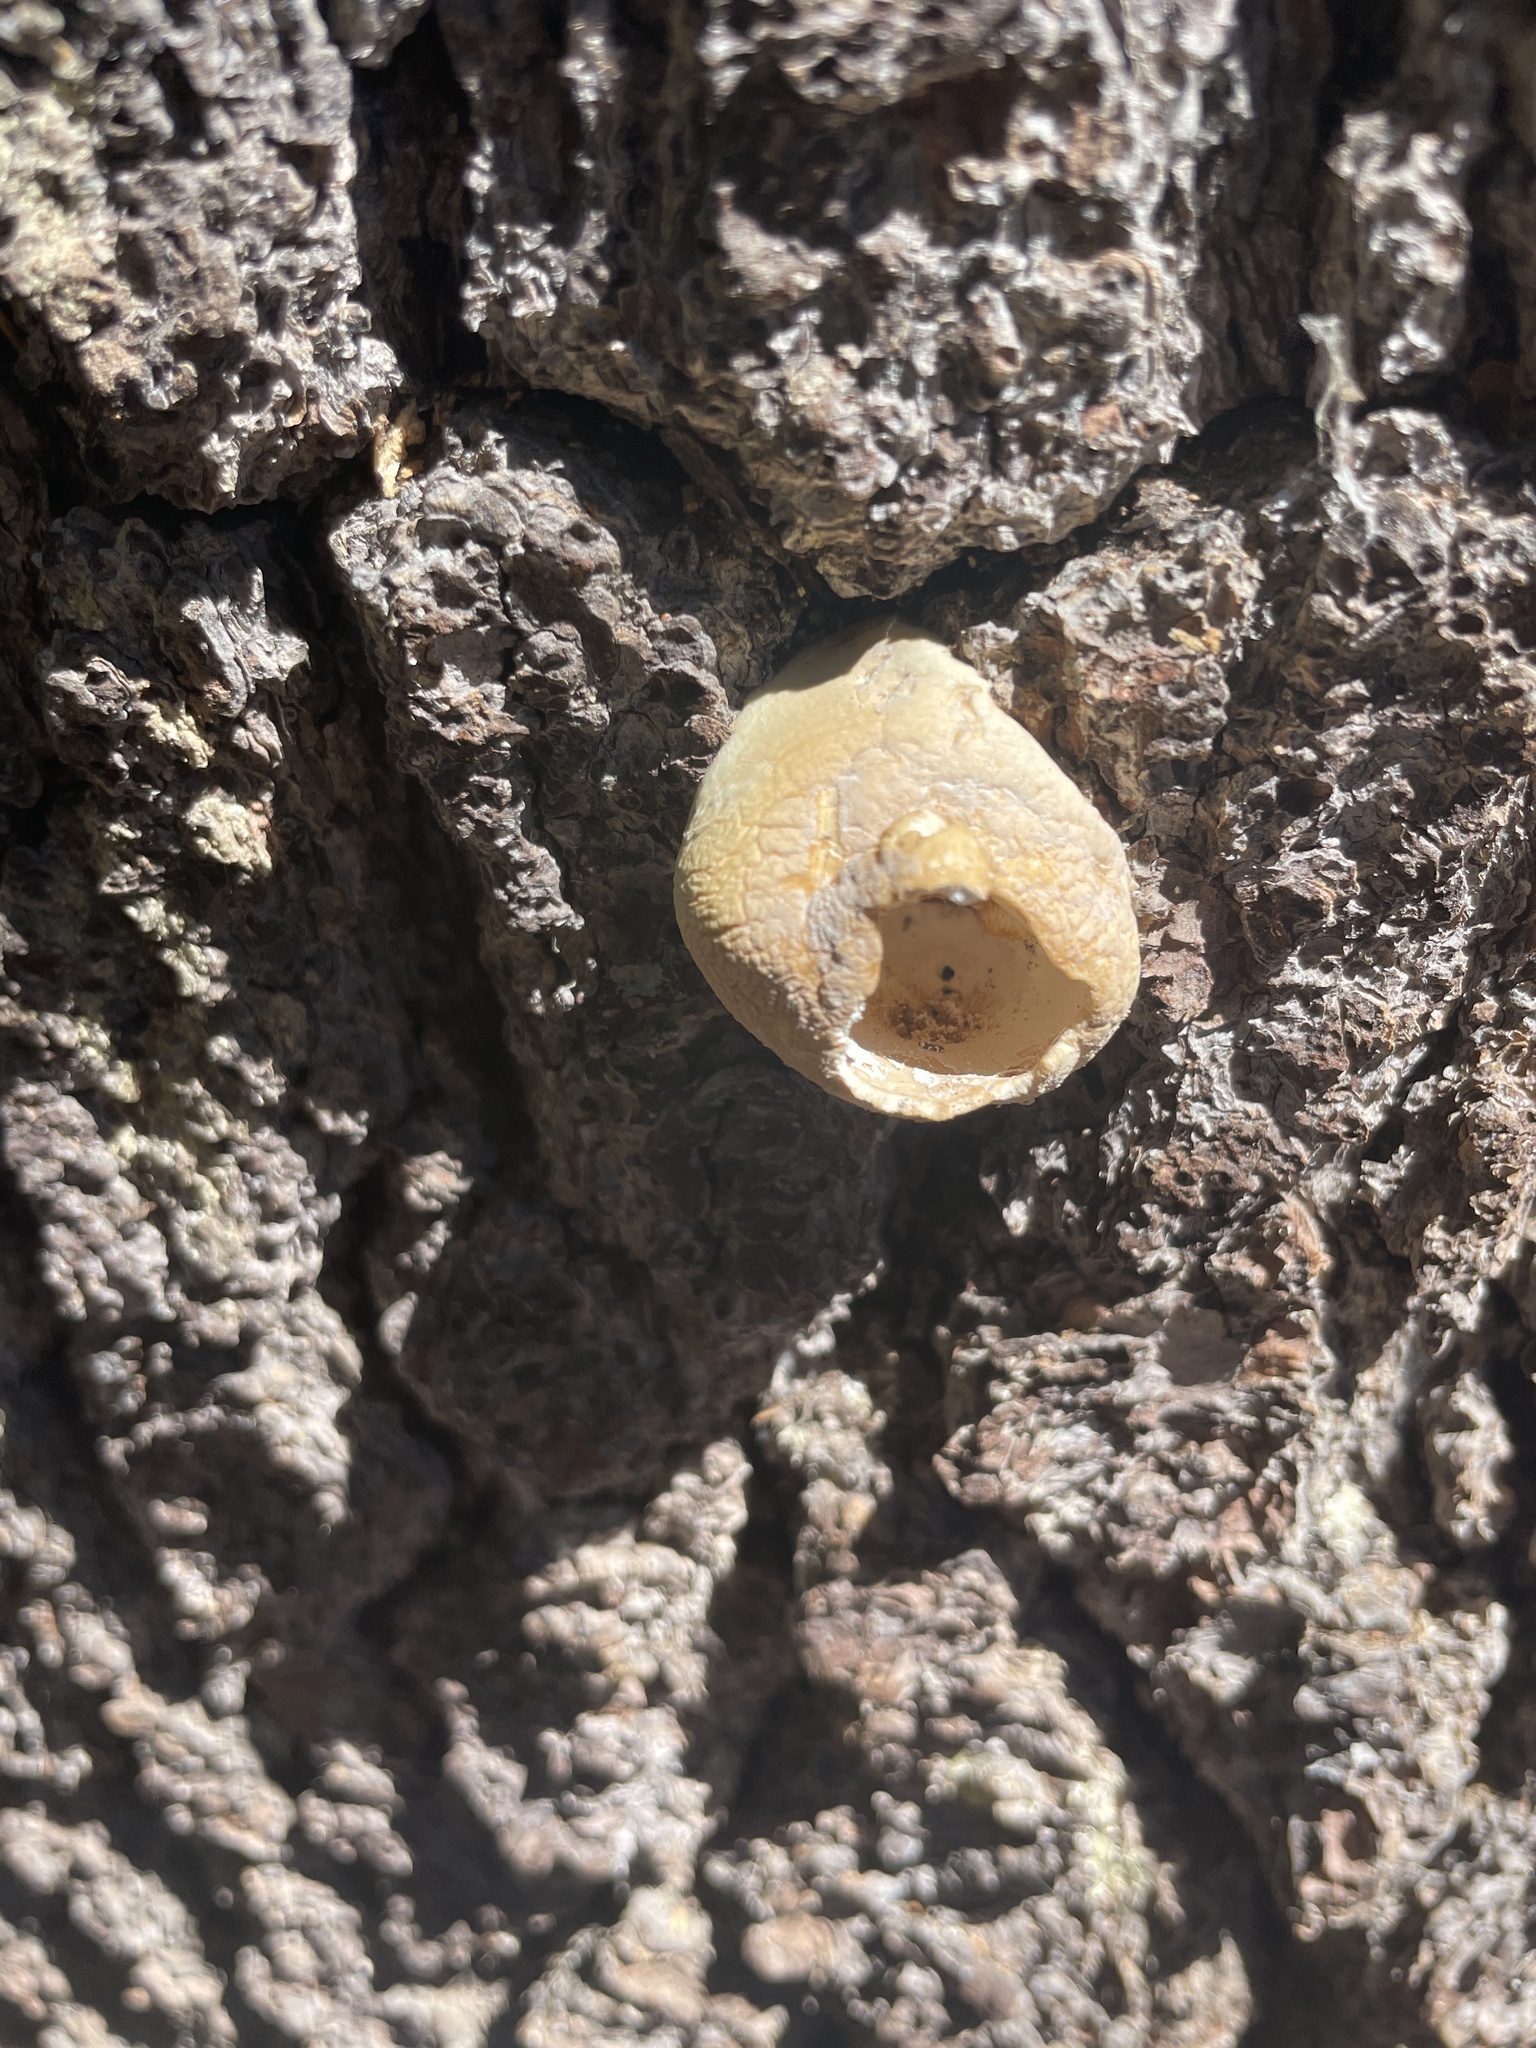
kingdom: Fungi
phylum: Basidiomycota
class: Agaricomycetes
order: Polyporales
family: Polyporaceae
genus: Cryptoporus
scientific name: Cryptoporus volvatus
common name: Veiled polypore
